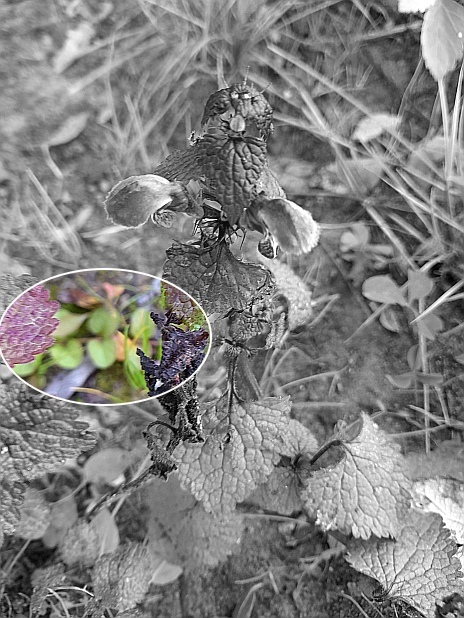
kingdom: Plantae
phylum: Tracheophyta
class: Magnoliopsida
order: Ericales
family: Primulaceae
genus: Lysimachia
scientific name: Lysimachia nummularia
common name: Moneywort
